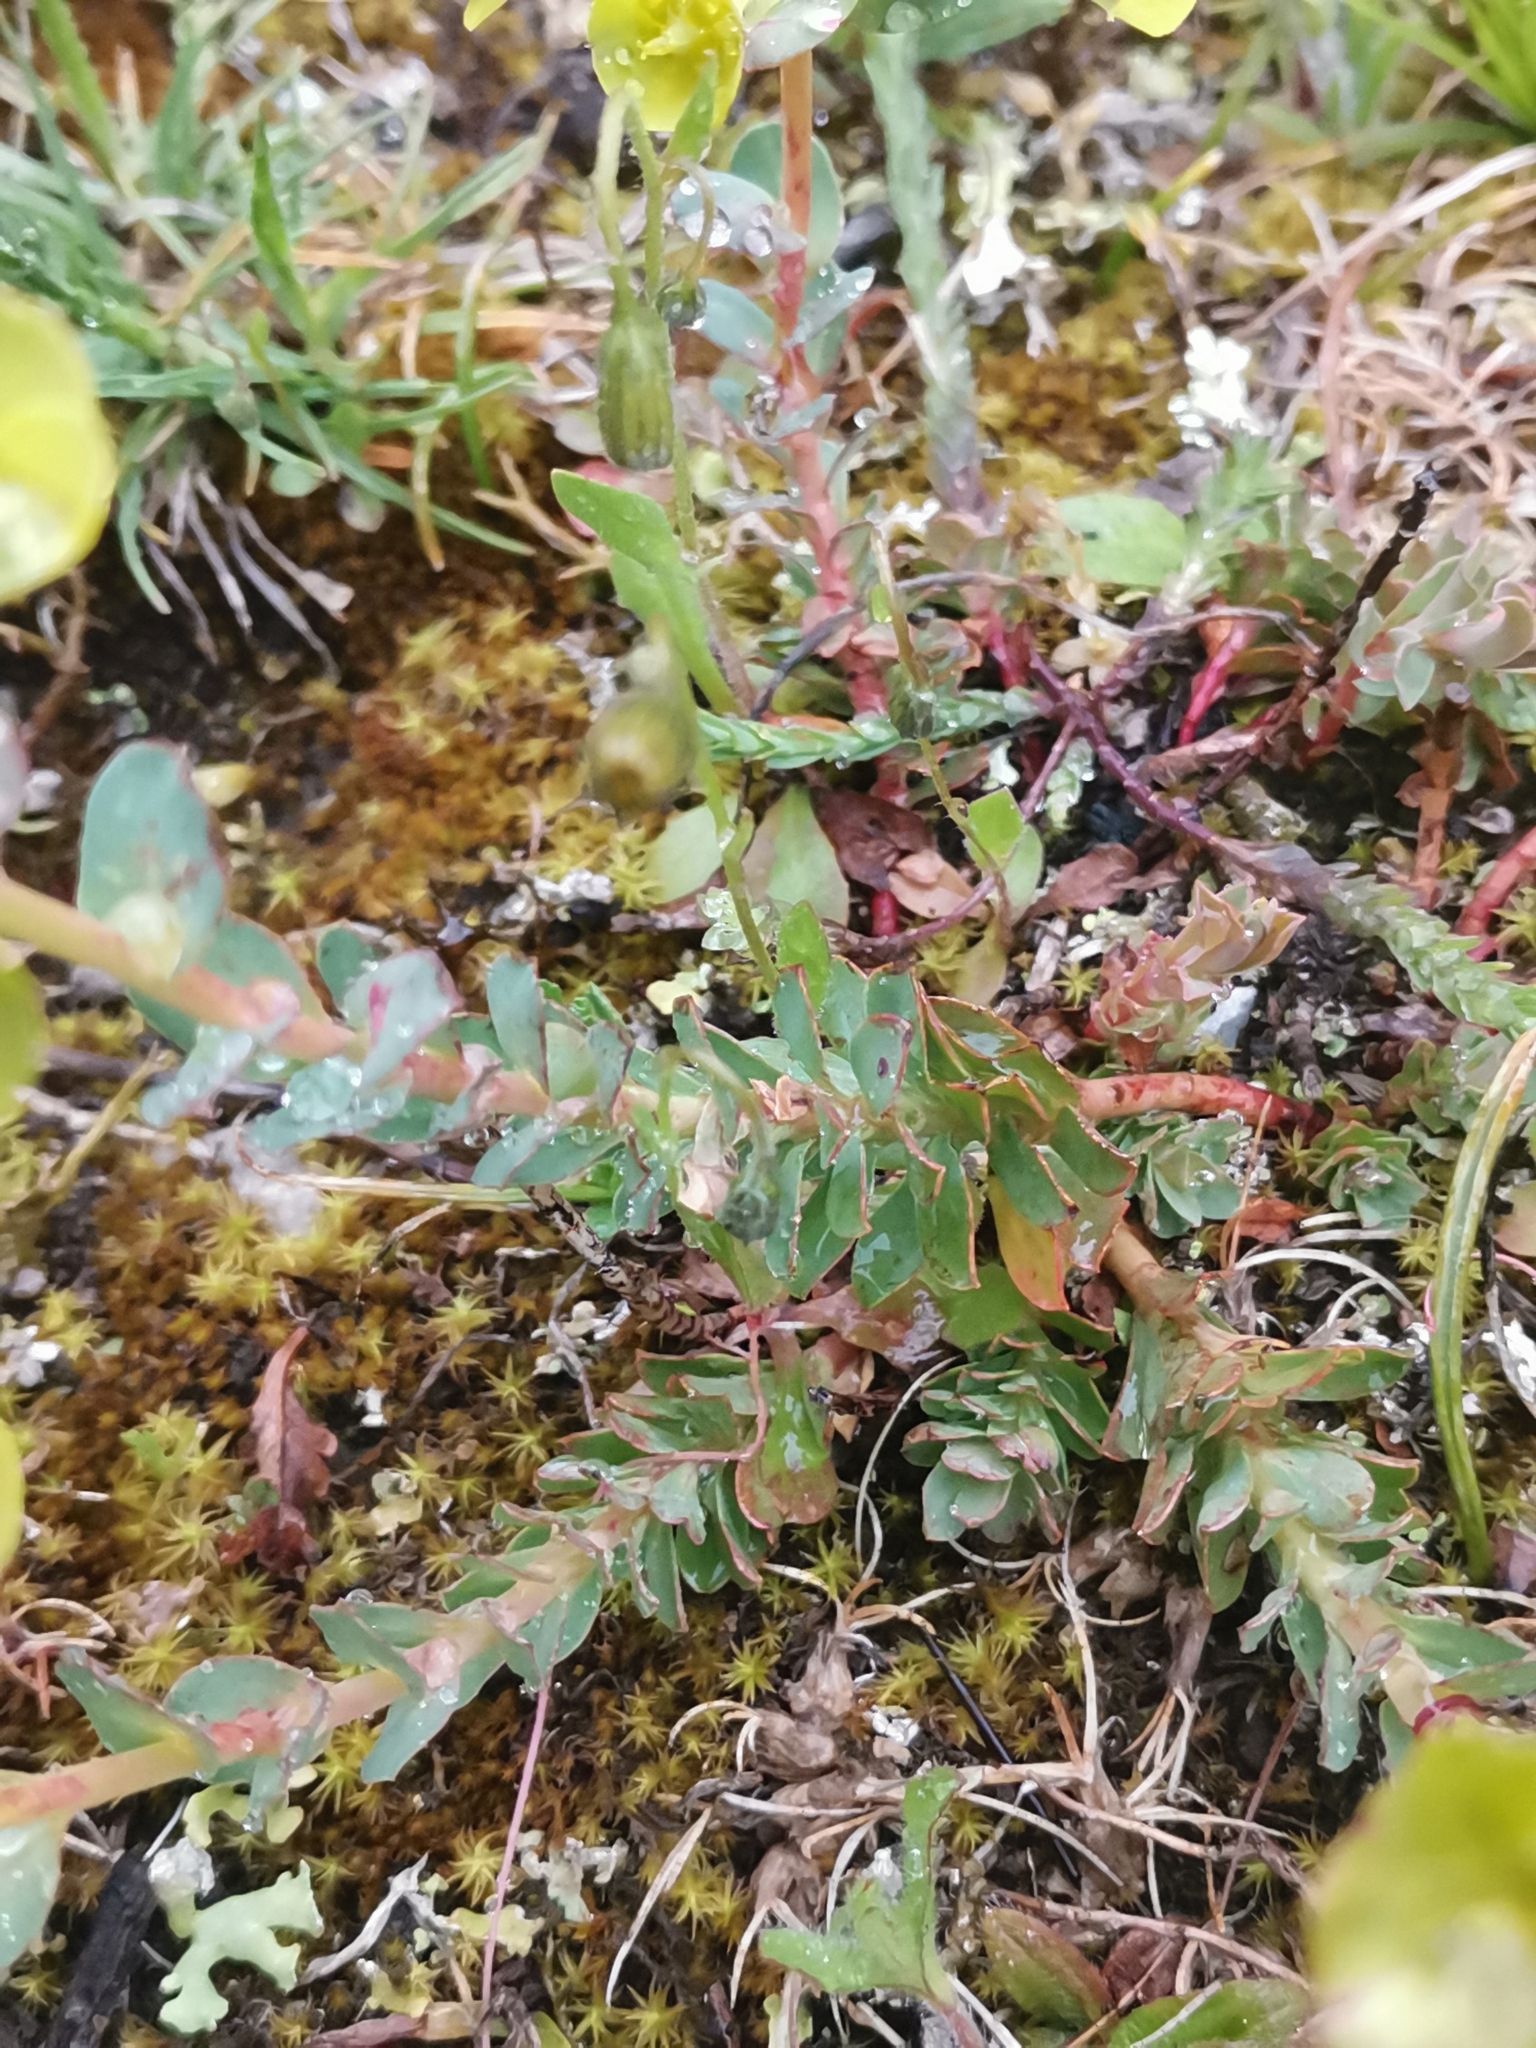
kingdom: Plantae
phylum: Tracheophyta
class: Magnoliopsida
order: Malpighiales
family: Euphorbiaceae
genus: Euphorbia
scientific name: Euphorbia barrelieri
